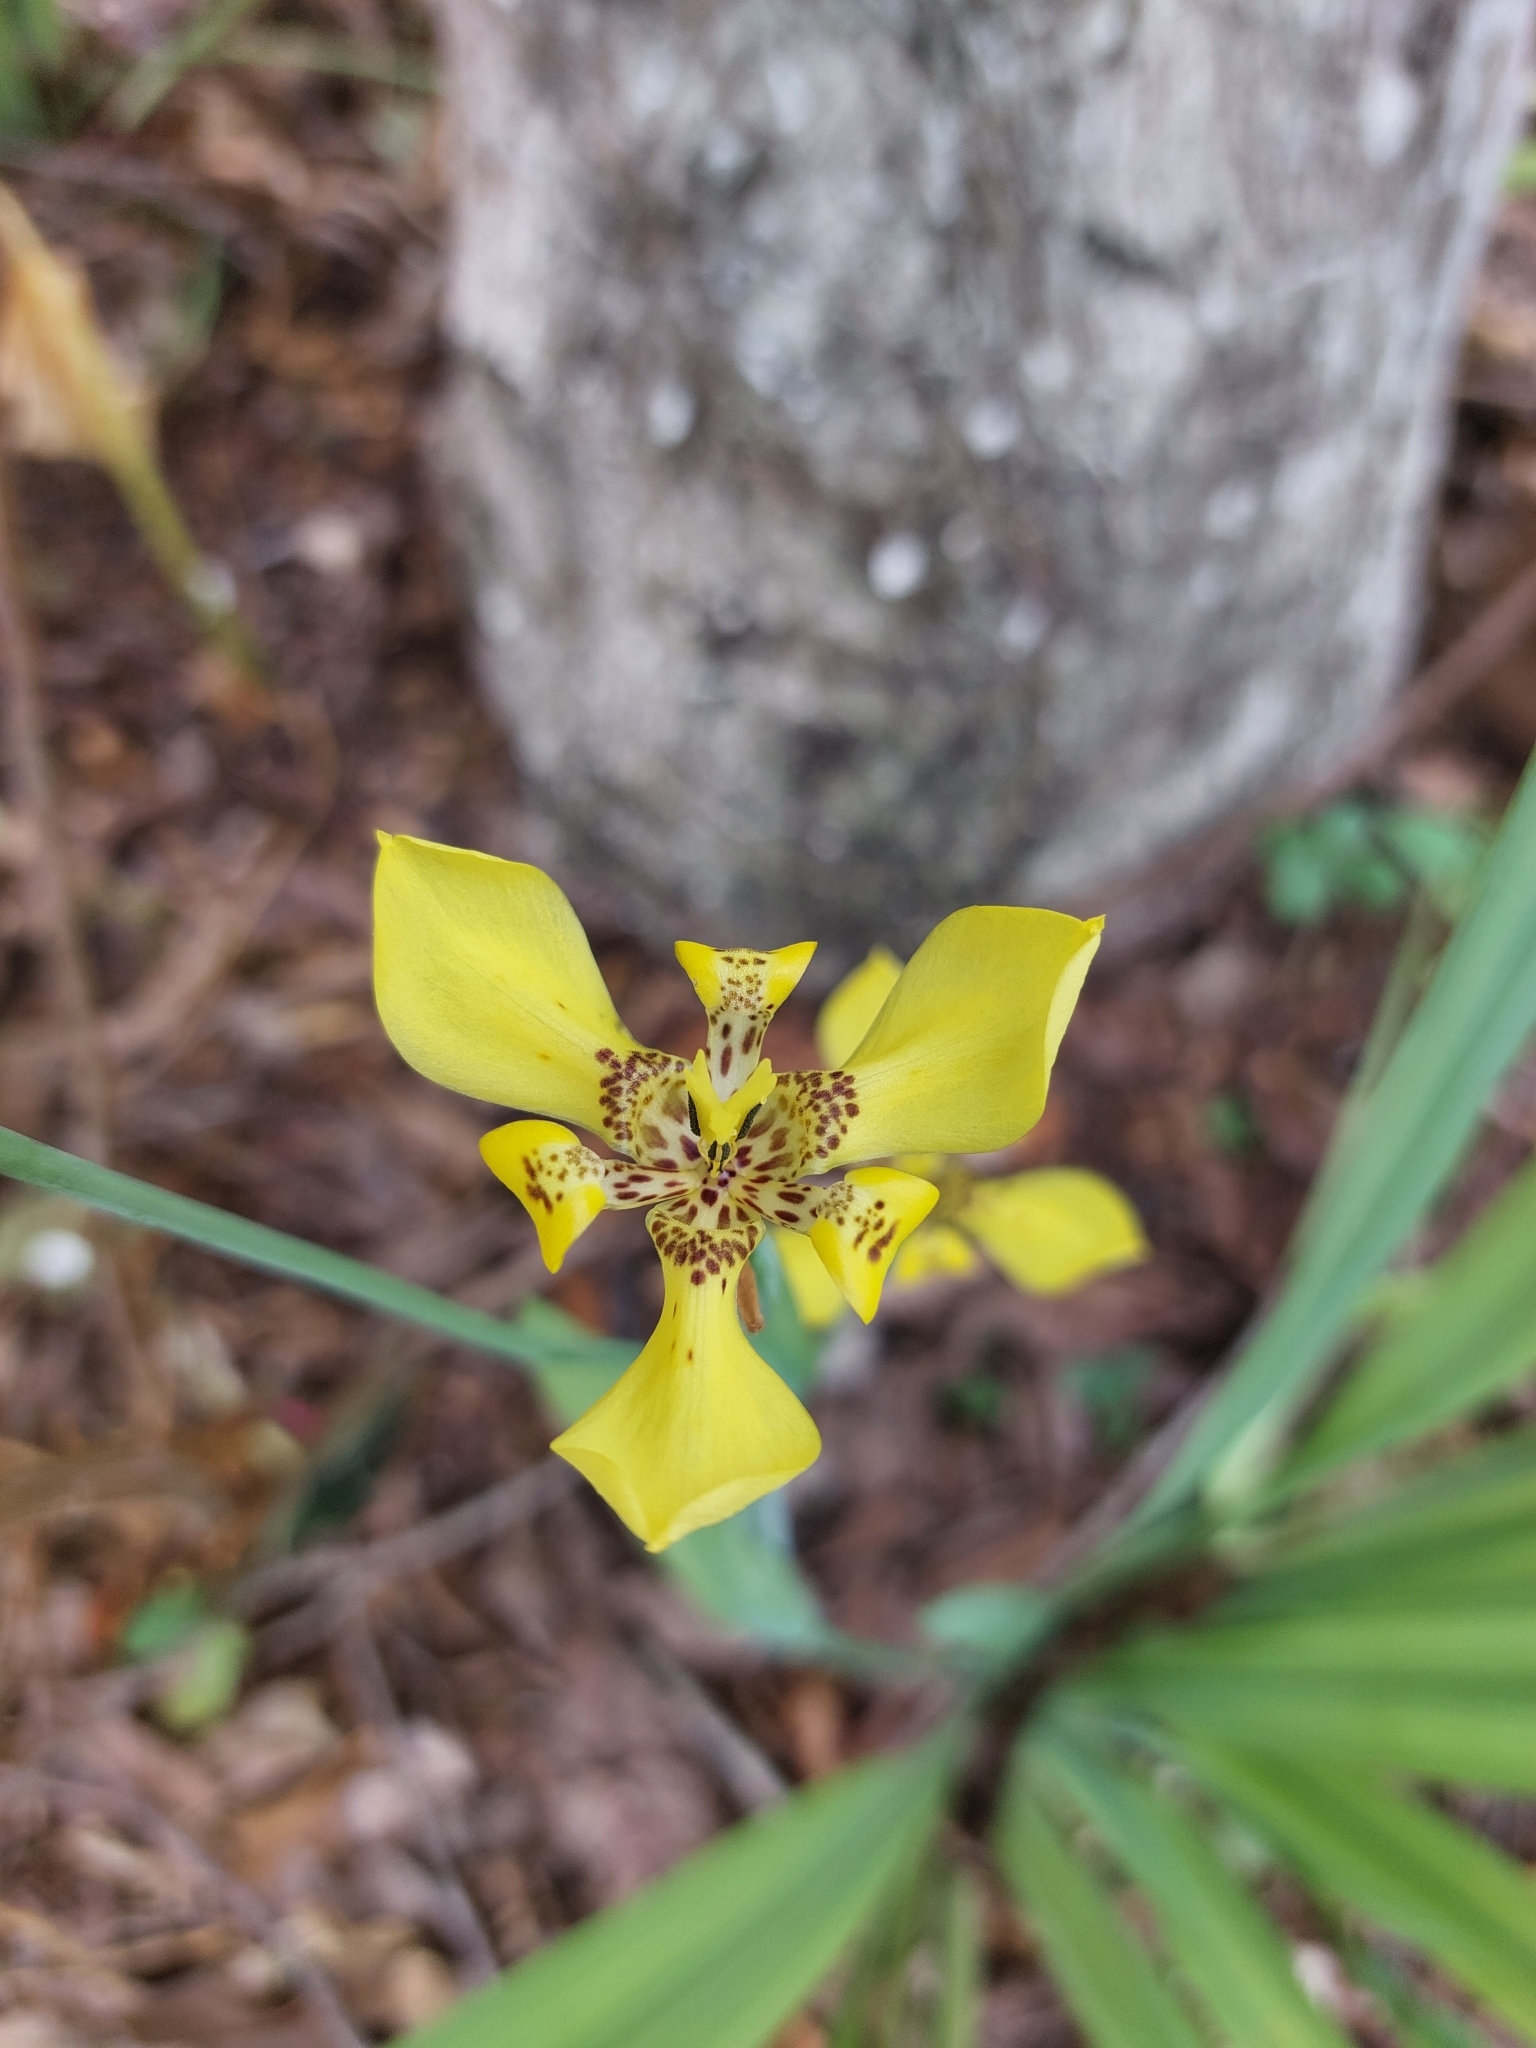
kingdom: Plantae
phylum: Tracheophyta
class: Liliopsida
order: Asparagales
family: Iridaceae
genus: Trimezia
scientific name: Trimezia steyermarkii
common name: Trimezia
